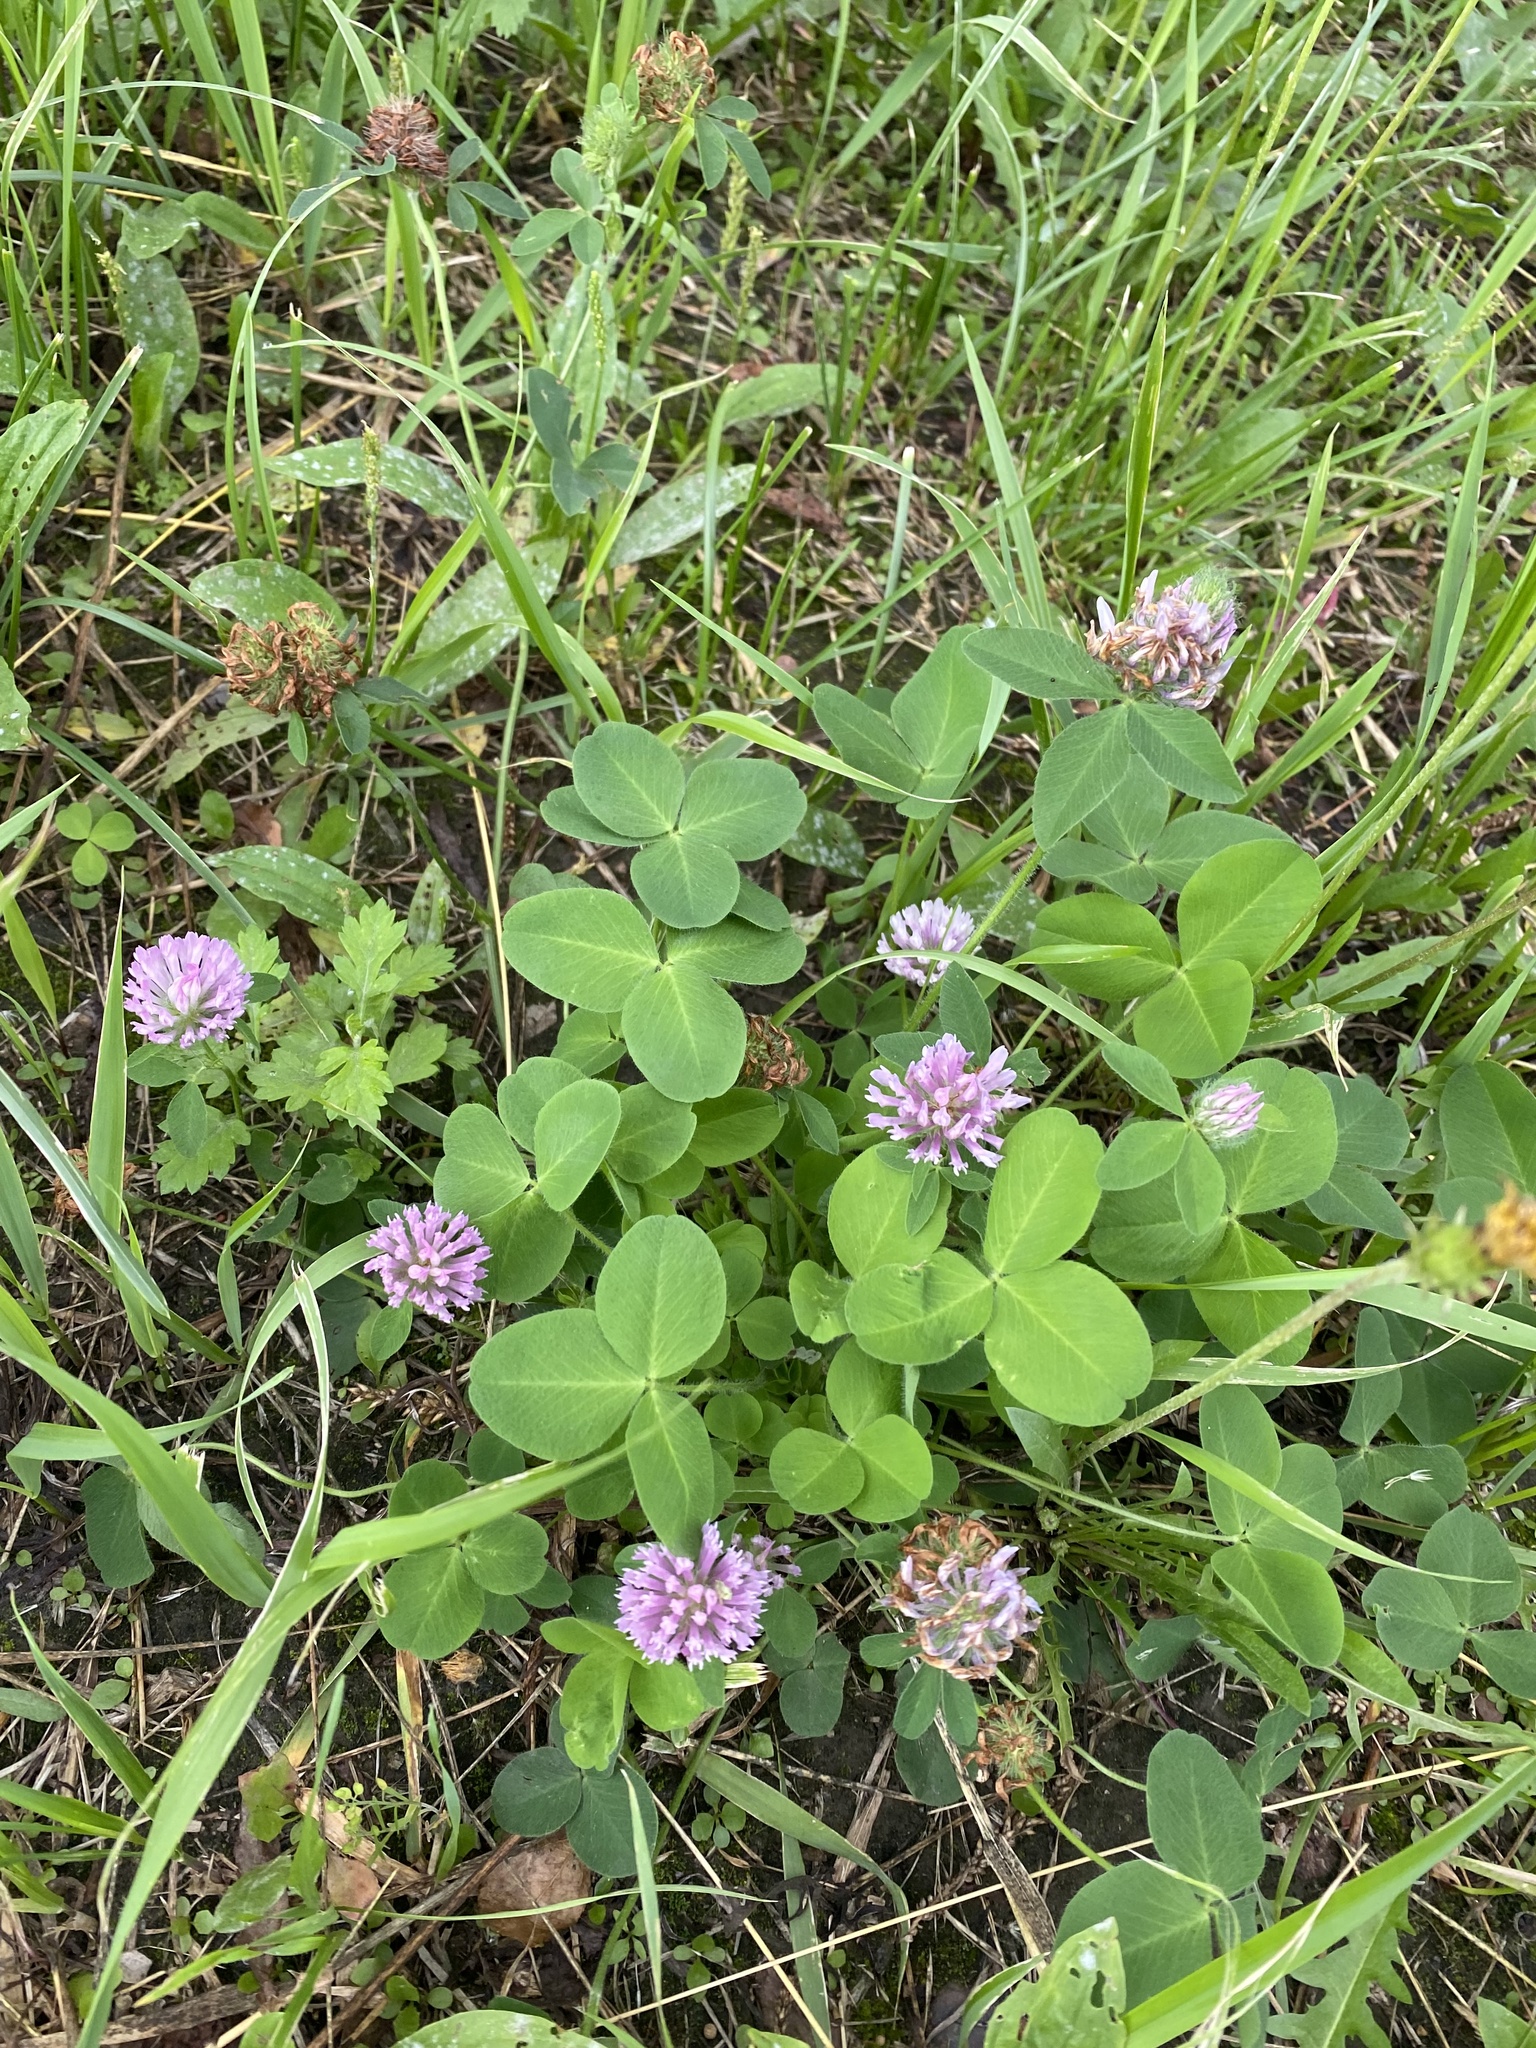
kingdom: Plantae
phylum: Tracheophyta
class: Magnoliopsida
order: Fabales
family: Fabaceae
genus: Trifolium
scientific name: Trifolium pratense
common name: Red clover
